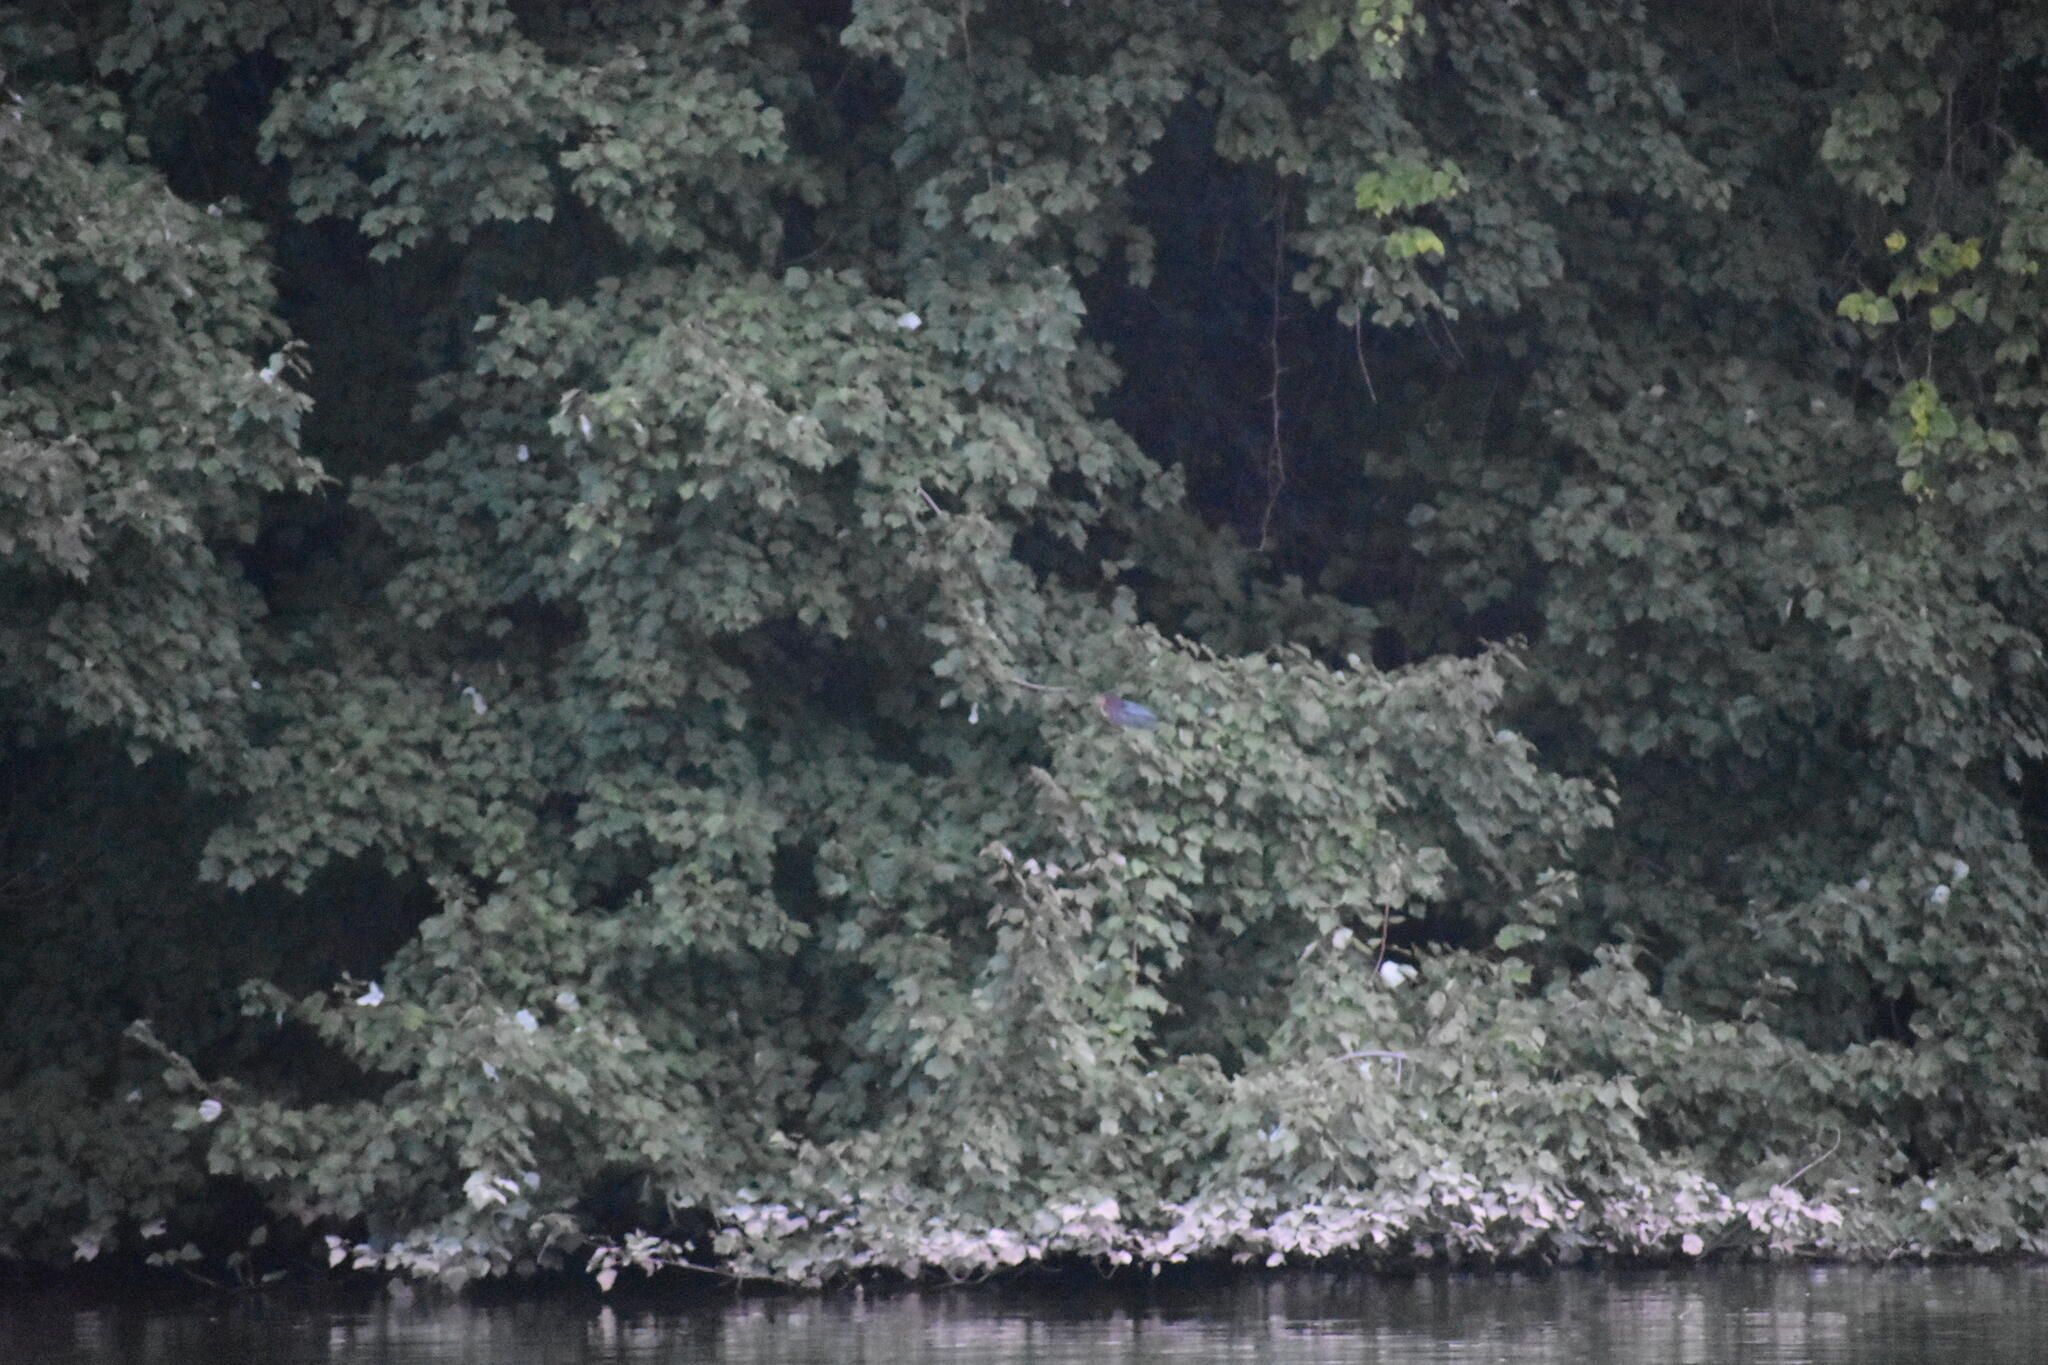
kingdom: Animalia
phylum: Chordata
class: Aves
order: Pelecaniformes
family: Ardeidae
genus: Butorides
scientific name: Butorides virescens
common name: Green heron
